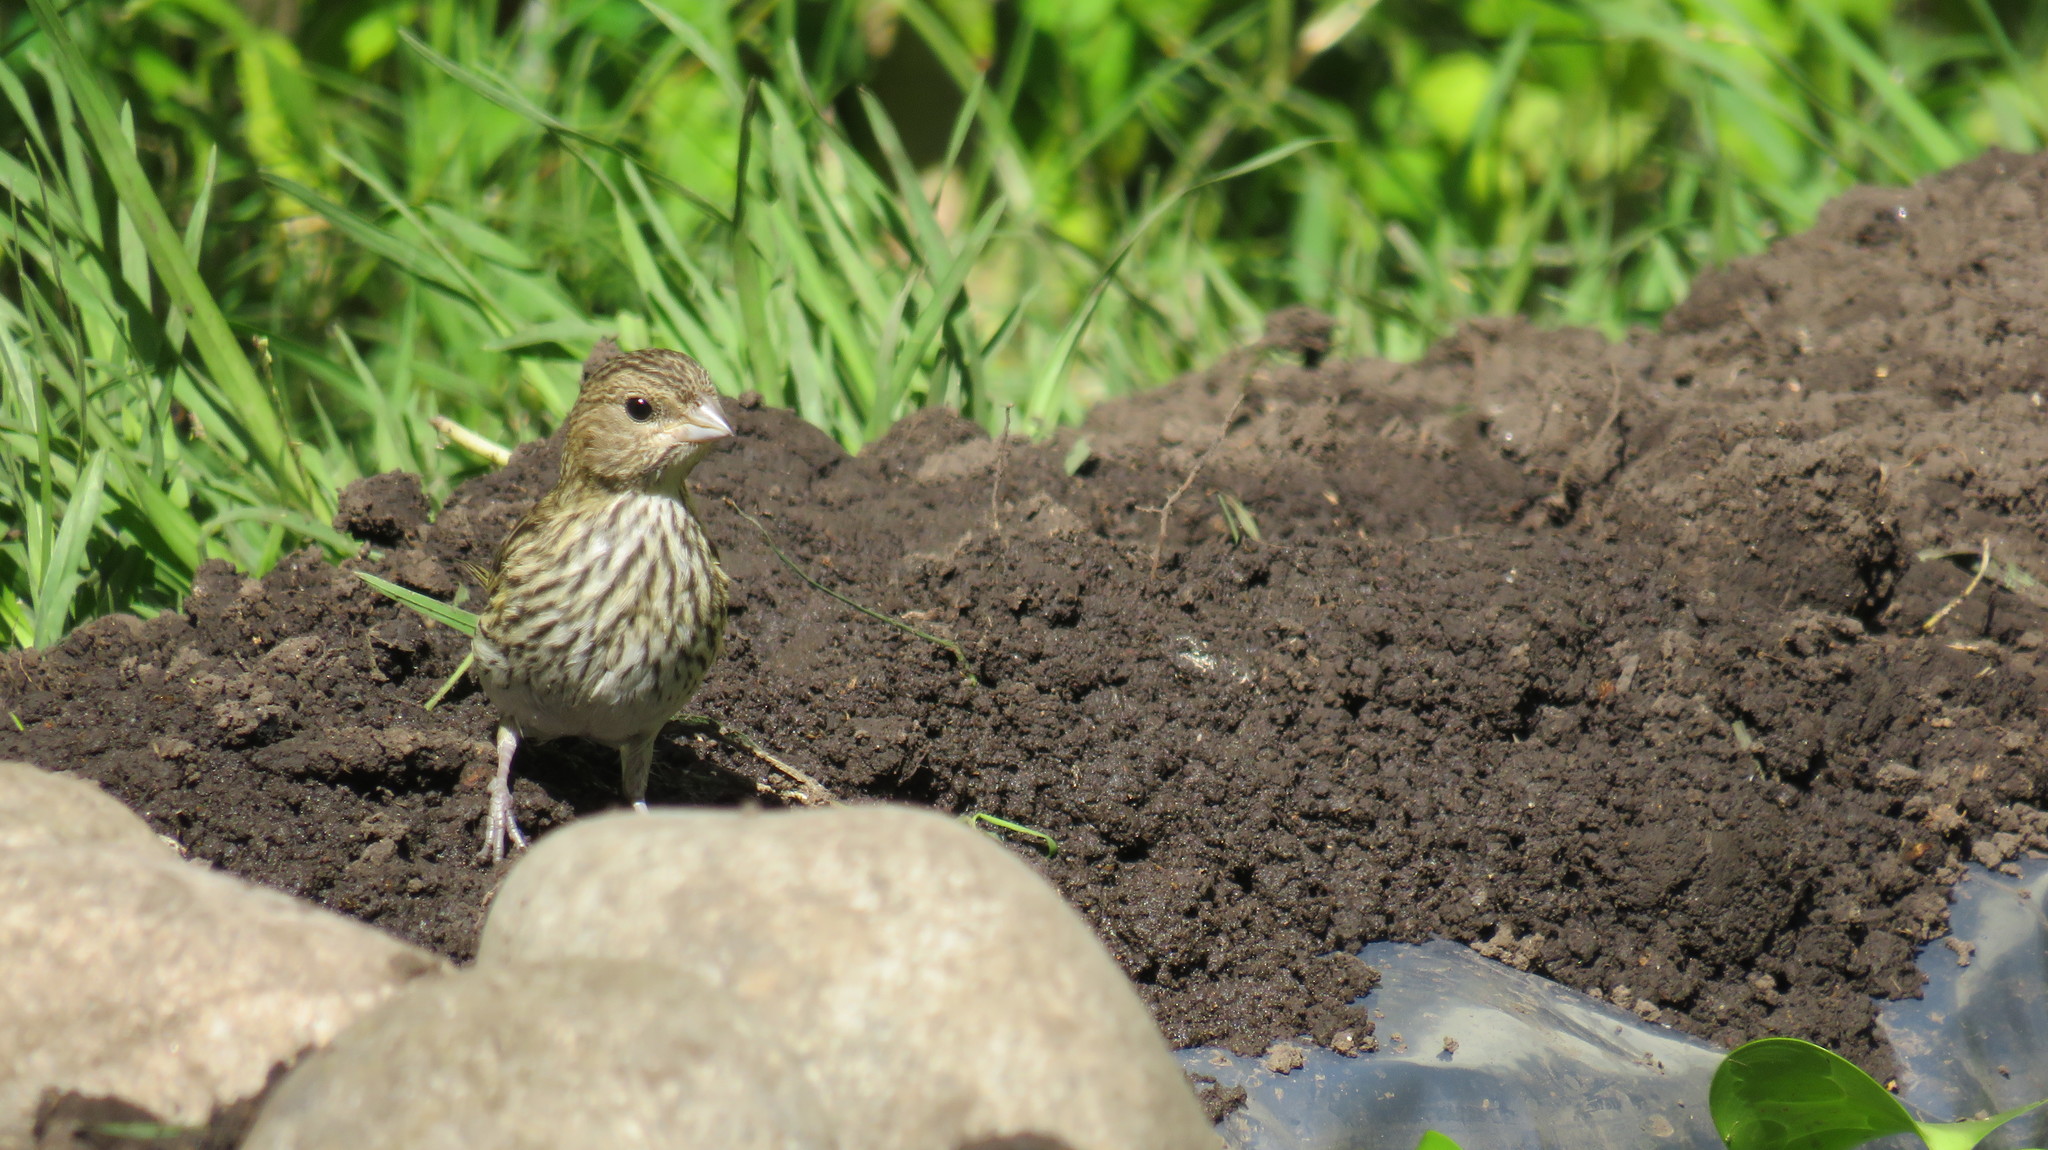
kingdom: Animalia
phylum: Chordata
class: Aves
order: Passeriformes
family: Thraupidae
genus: Sicalis
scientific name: Sicalis flaveola
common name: Saffron finch
